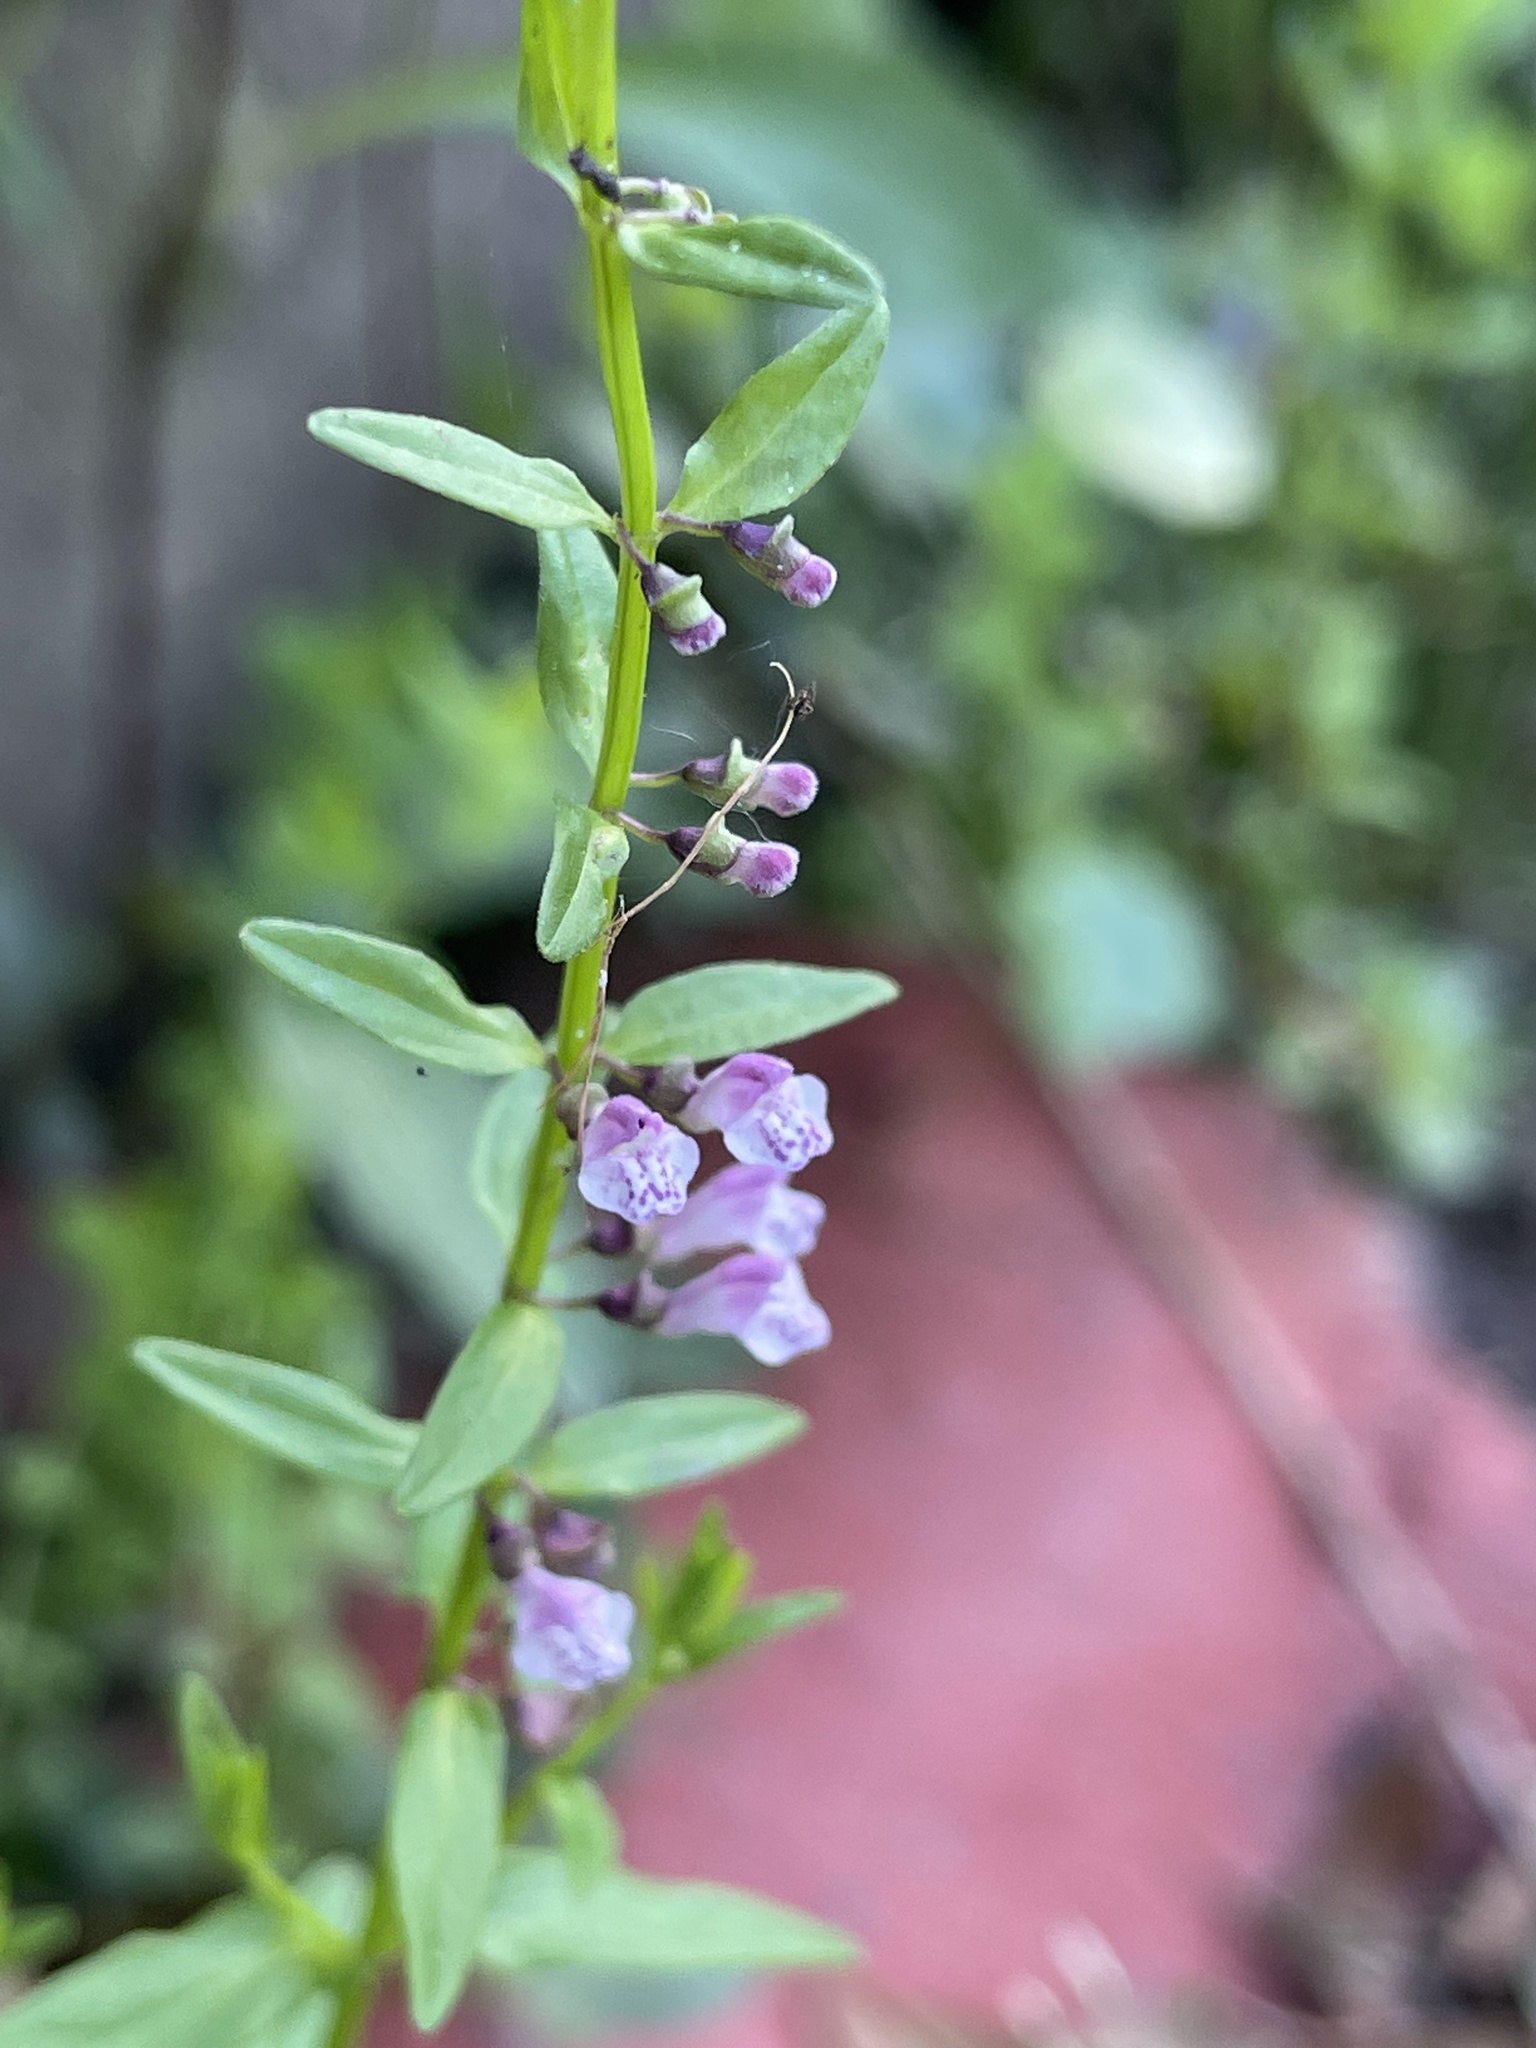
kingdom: Plantae
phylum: Tracheophyta
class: Magnoliopsida
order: Lamiales
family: Lamiaceae
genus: Scutellaria
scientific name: Scutellaria racemosa
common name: South american skullcap
